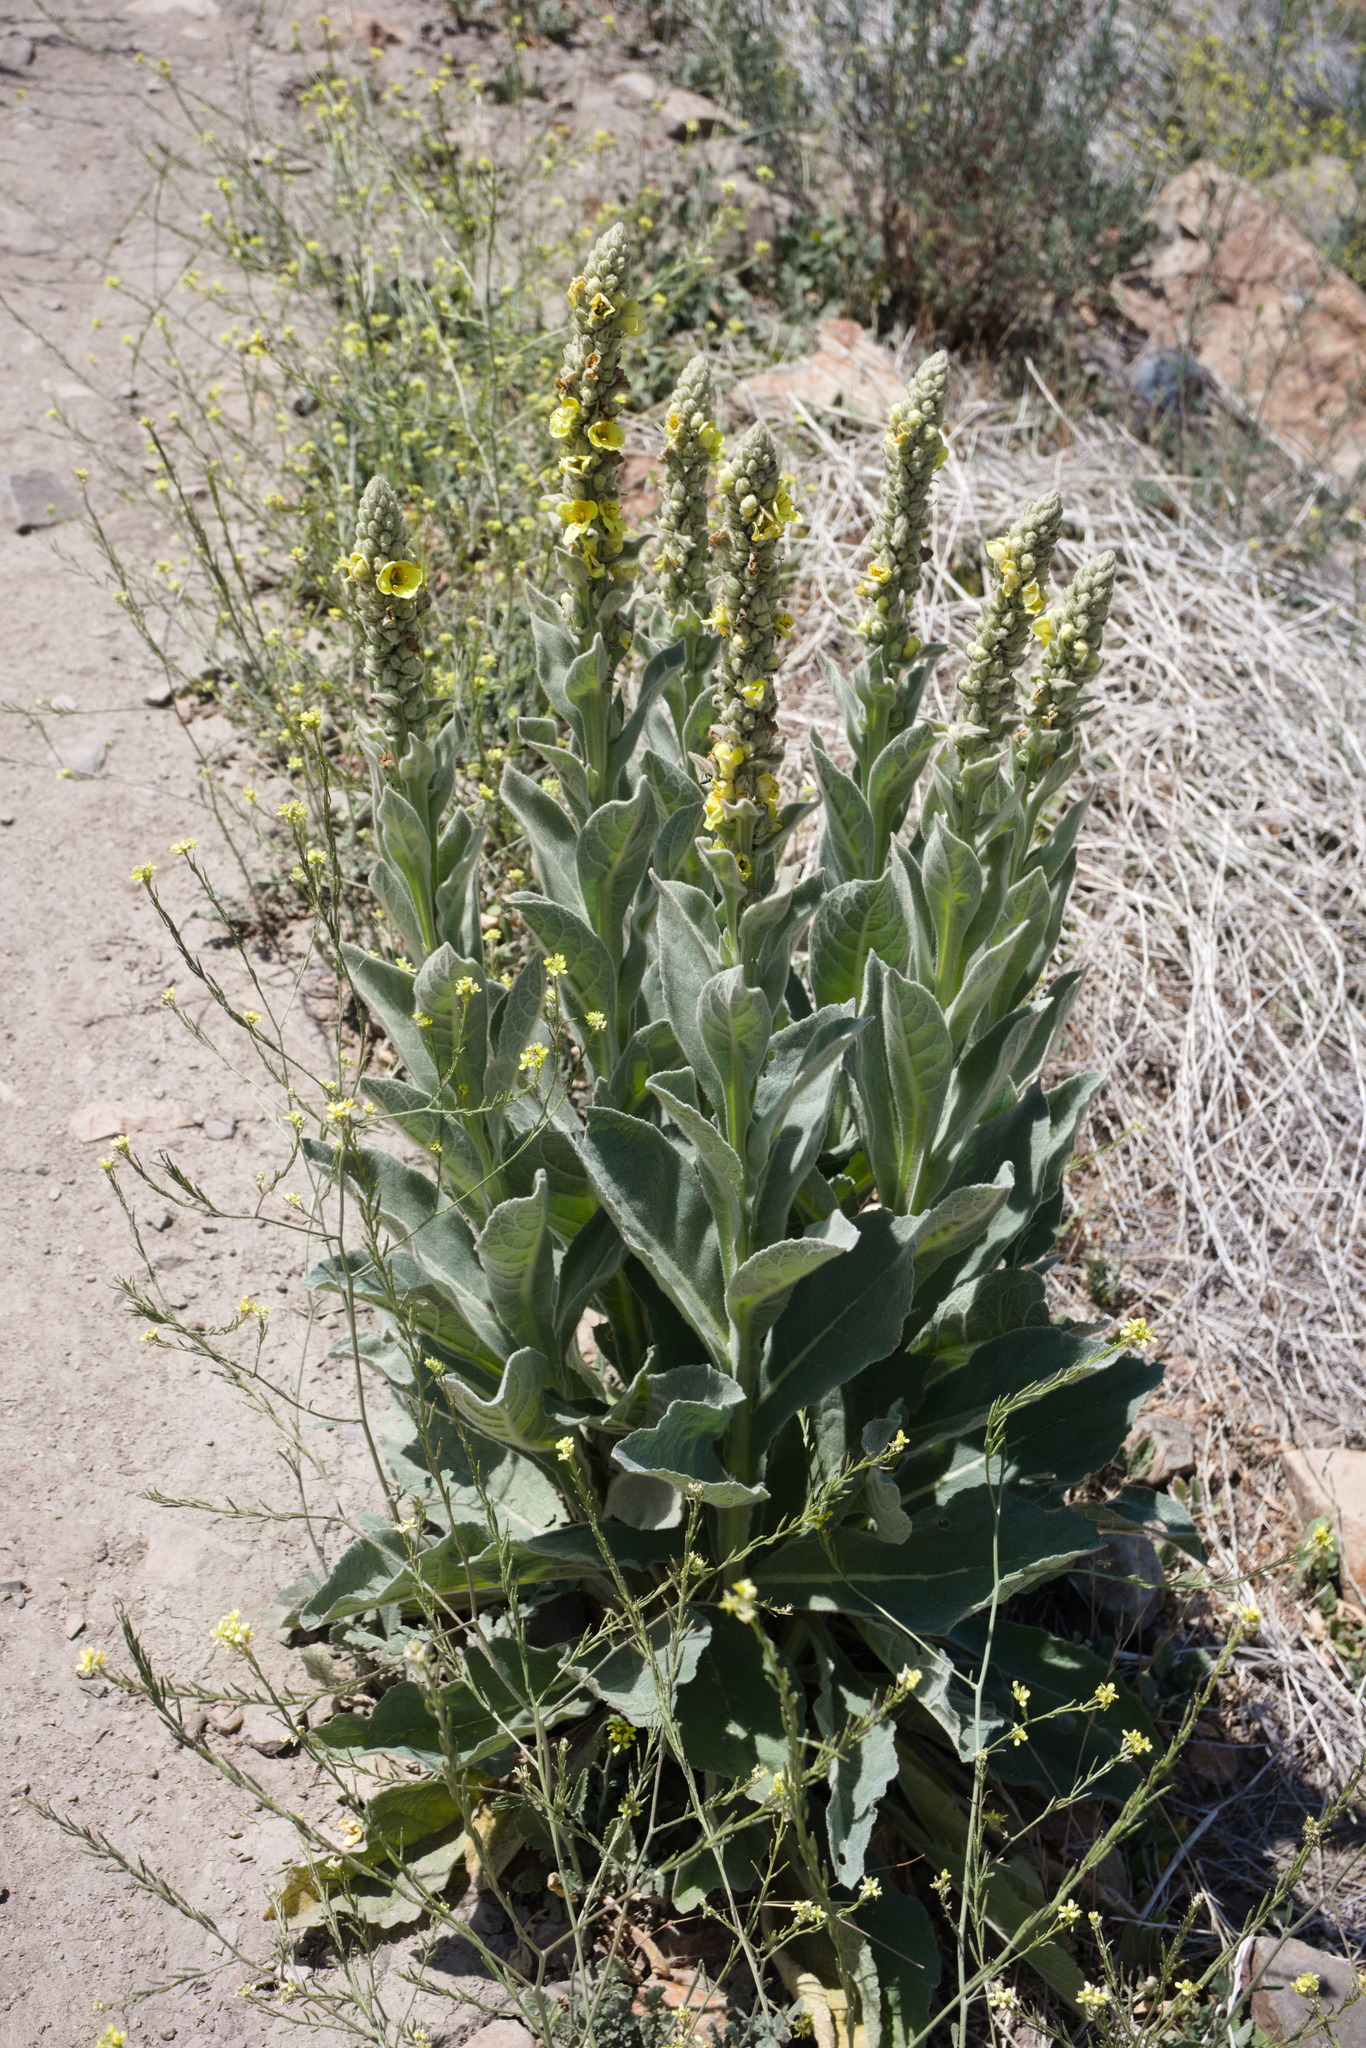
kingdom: Plantae
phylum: Tracheophyta
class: Magnoliopsida
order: Lamiales
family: Scrophulariaceae
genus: Verbascum
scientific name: Verbascum thapsus
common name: Common mullein
